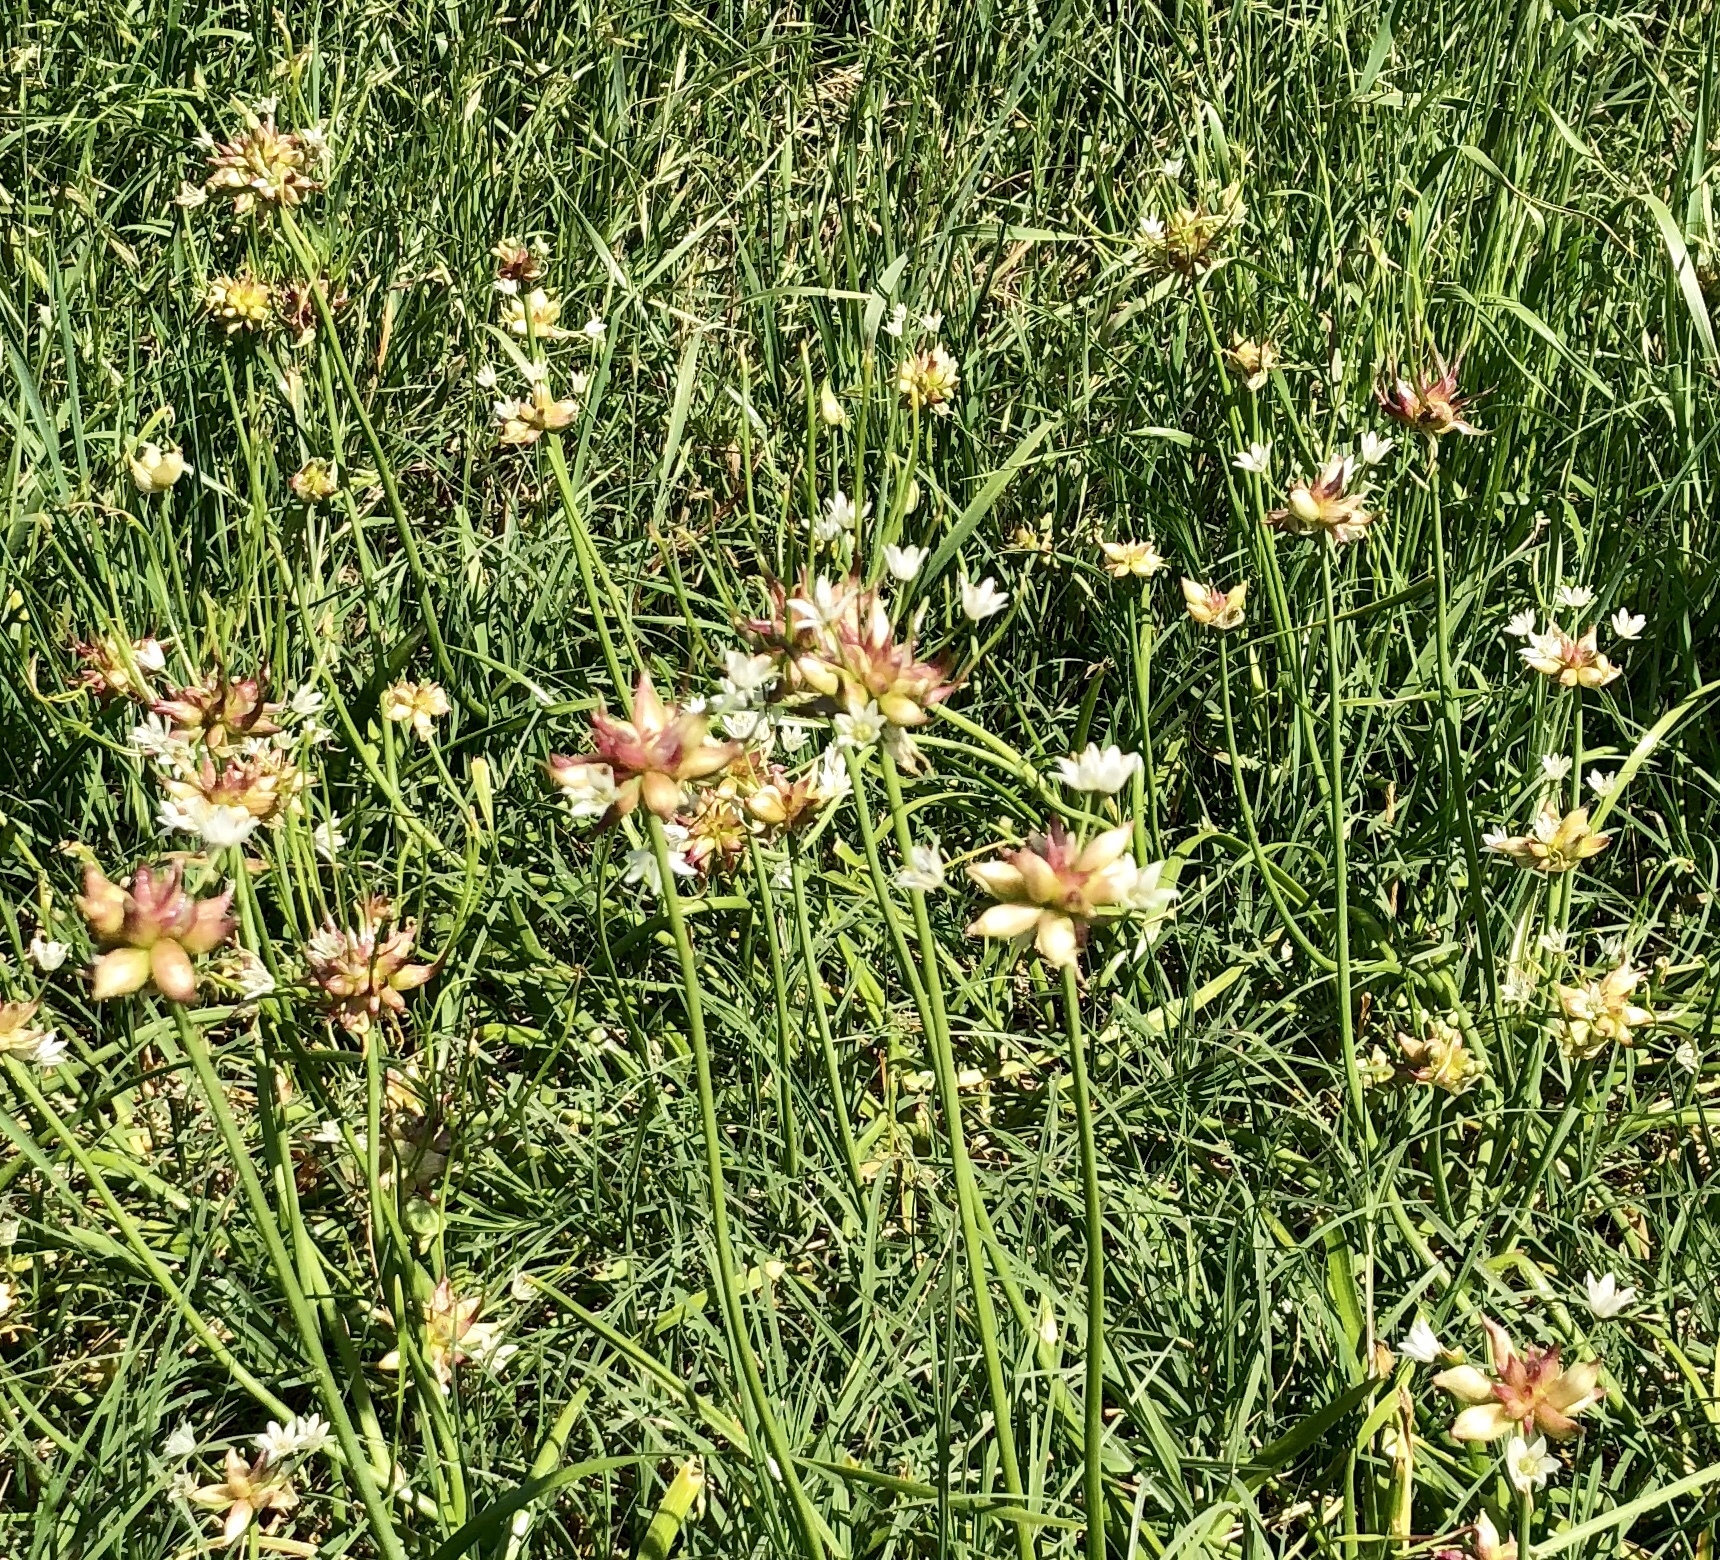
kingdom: Plantae
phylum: Tracheophyta
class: Liliopsida
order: Asparagales
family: Amaryllidaceae
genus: Allium
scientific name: Allium canadense
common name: Meadow garlic
